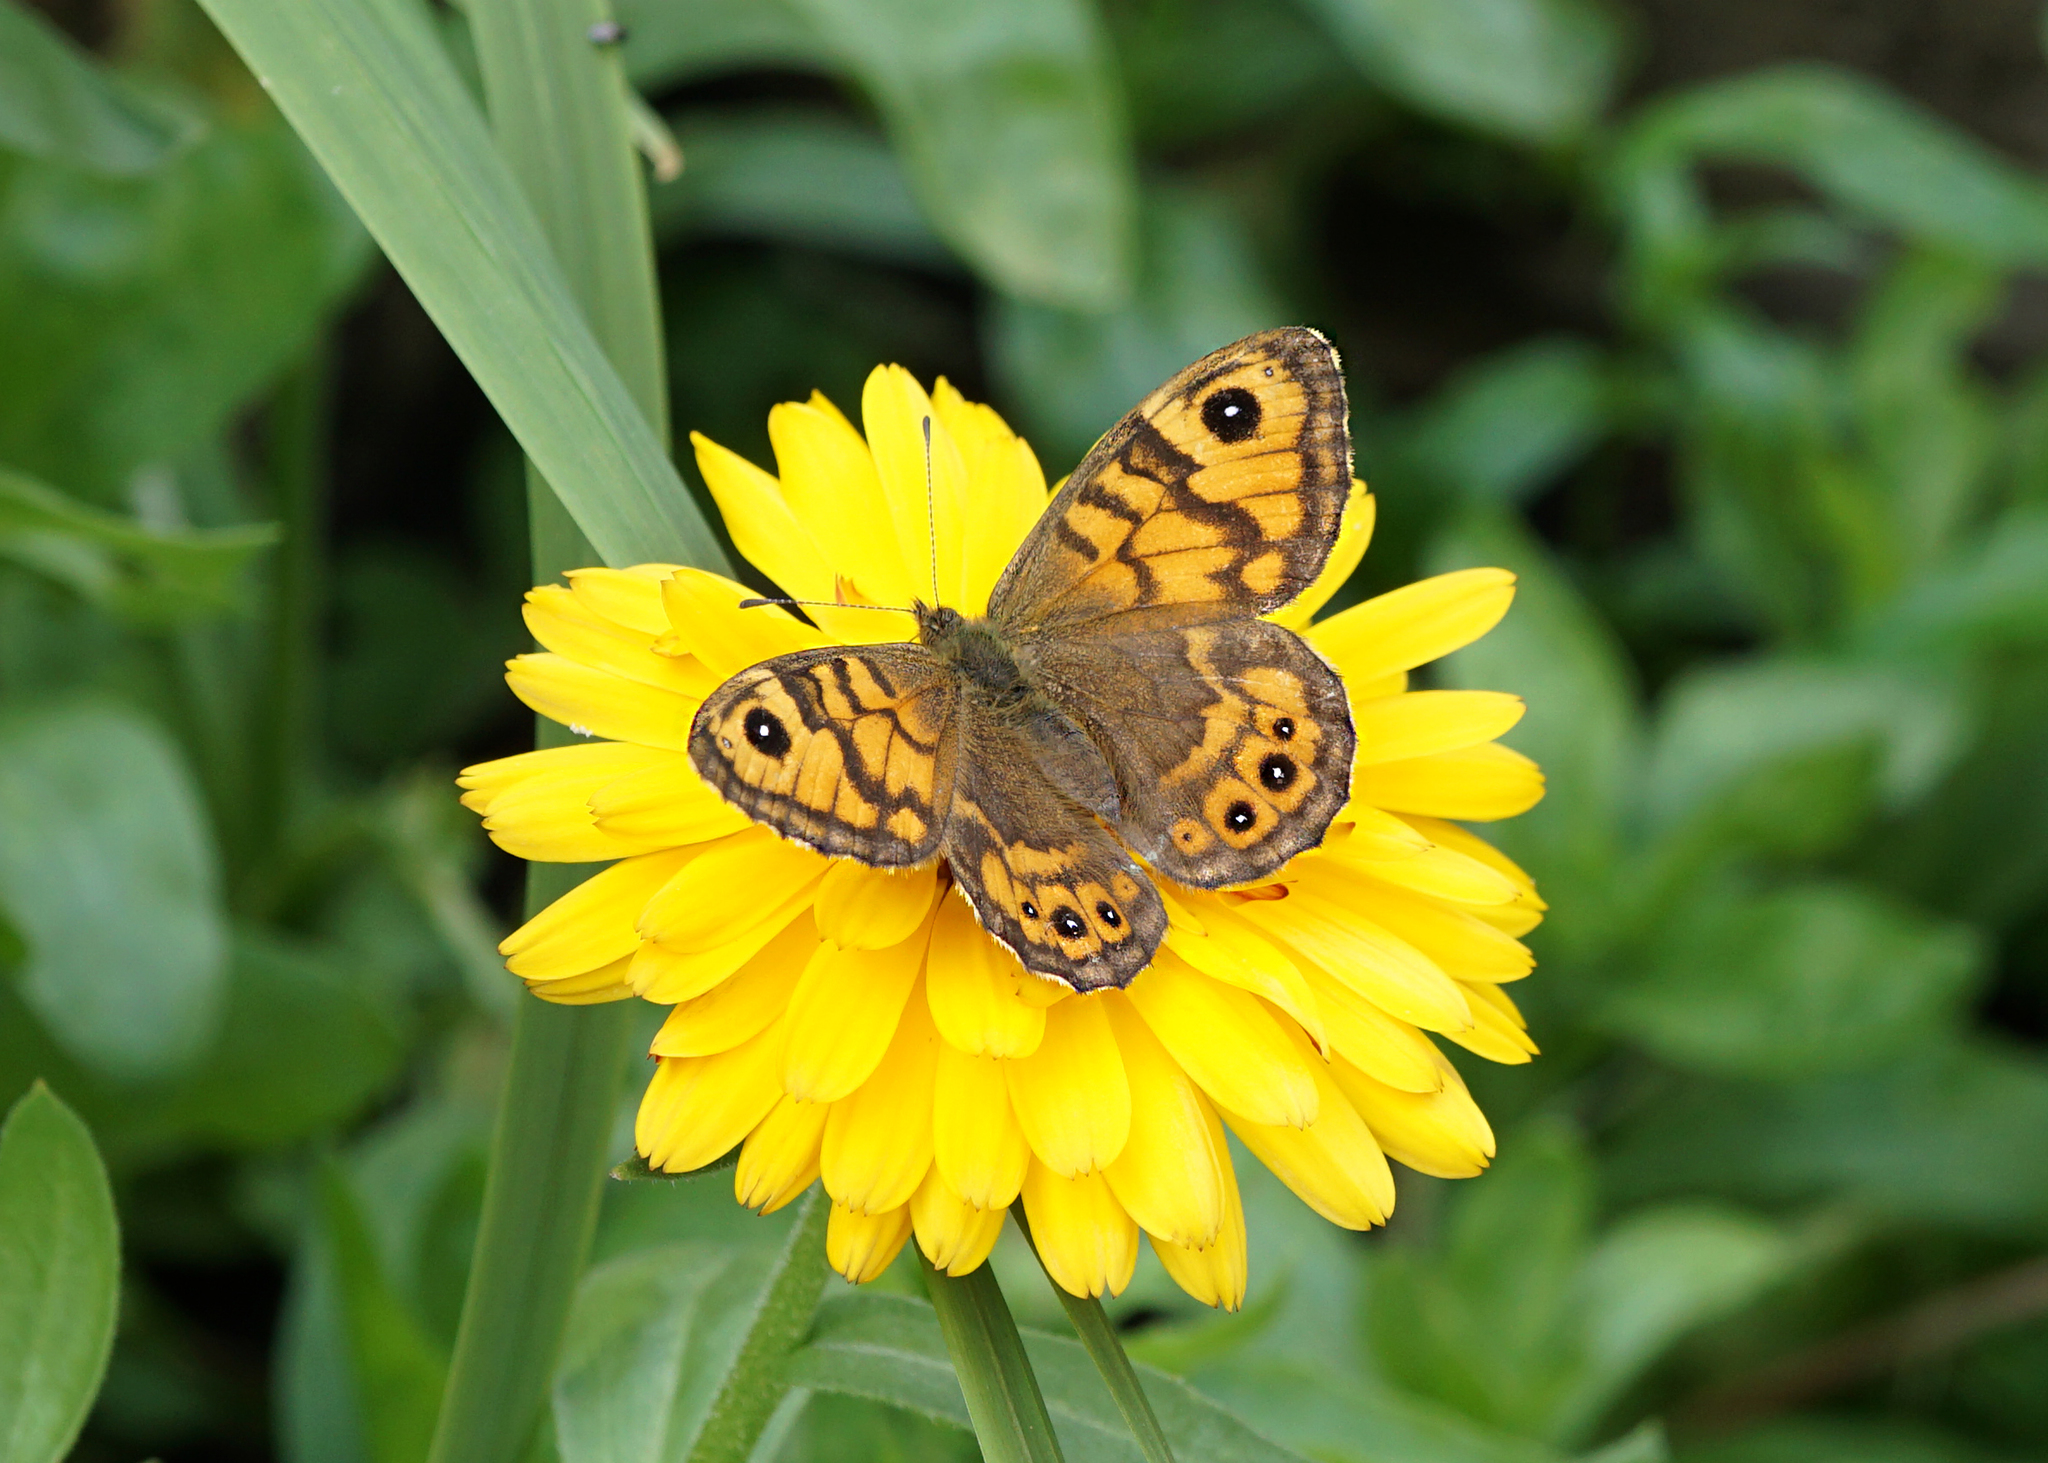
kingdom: Animalia
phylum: Arthropoda
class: Insecta
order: Lepidoptera
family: Nymphalidae
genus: Pararge
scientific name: Pararge Lasiommata megera
